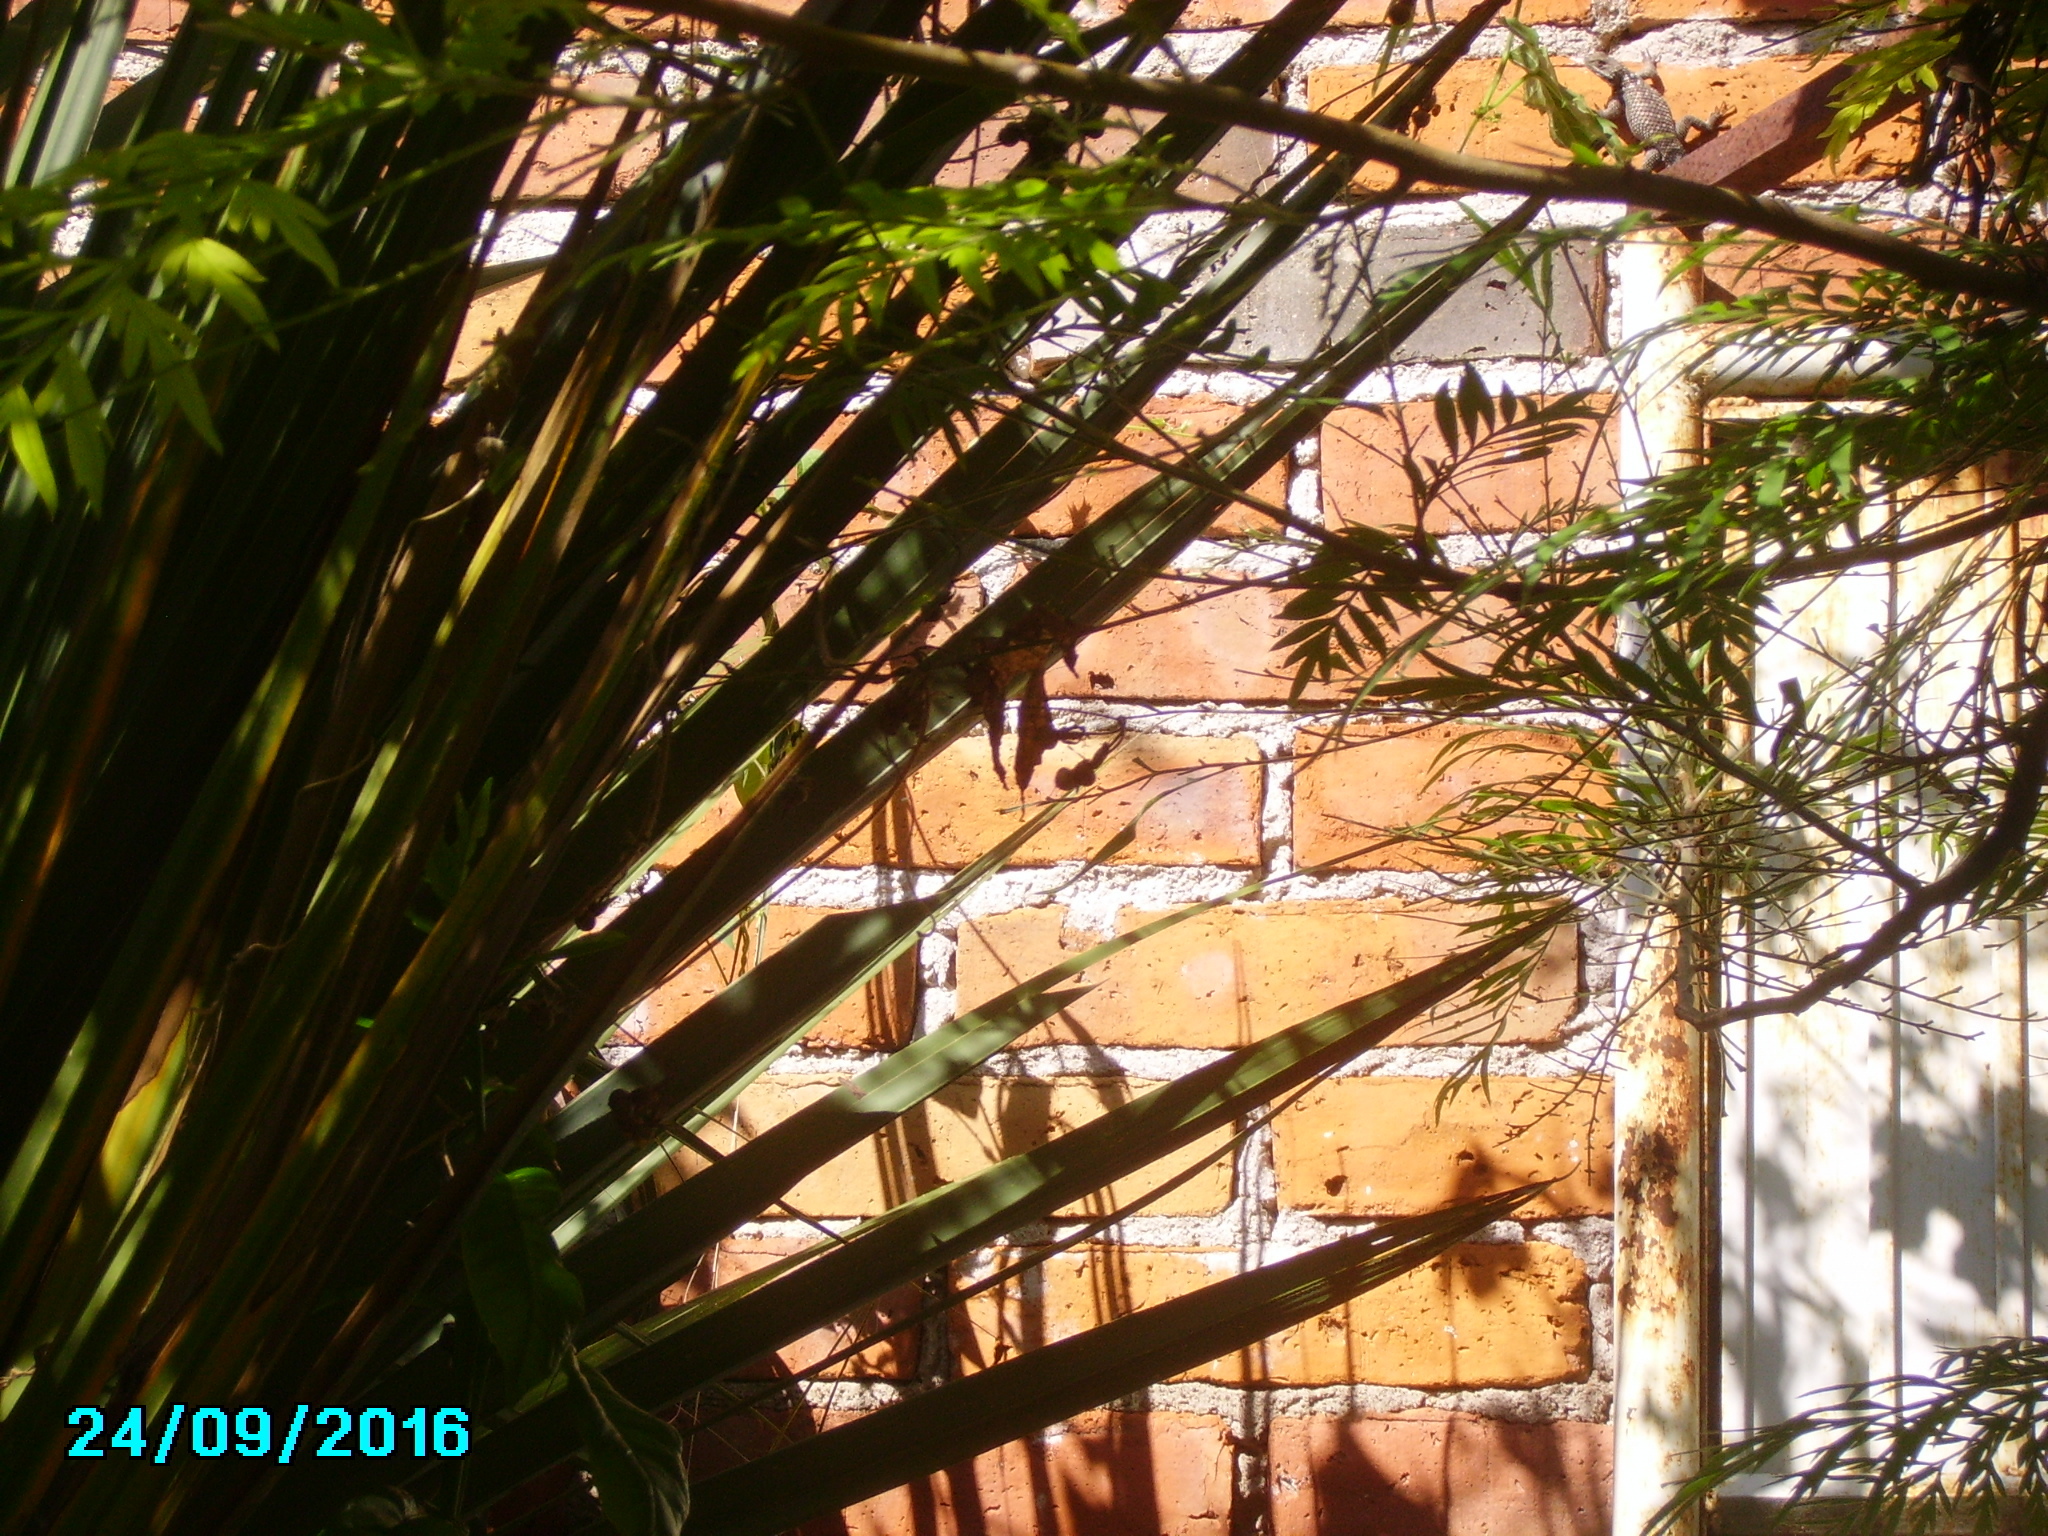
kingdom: Animalia
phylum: Chordata
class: Squamata
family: Phrynosomatidae
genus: Sceloporus
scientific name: Sceloporus torquatus
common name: Central plateau torquate lizard [melanogaster]
